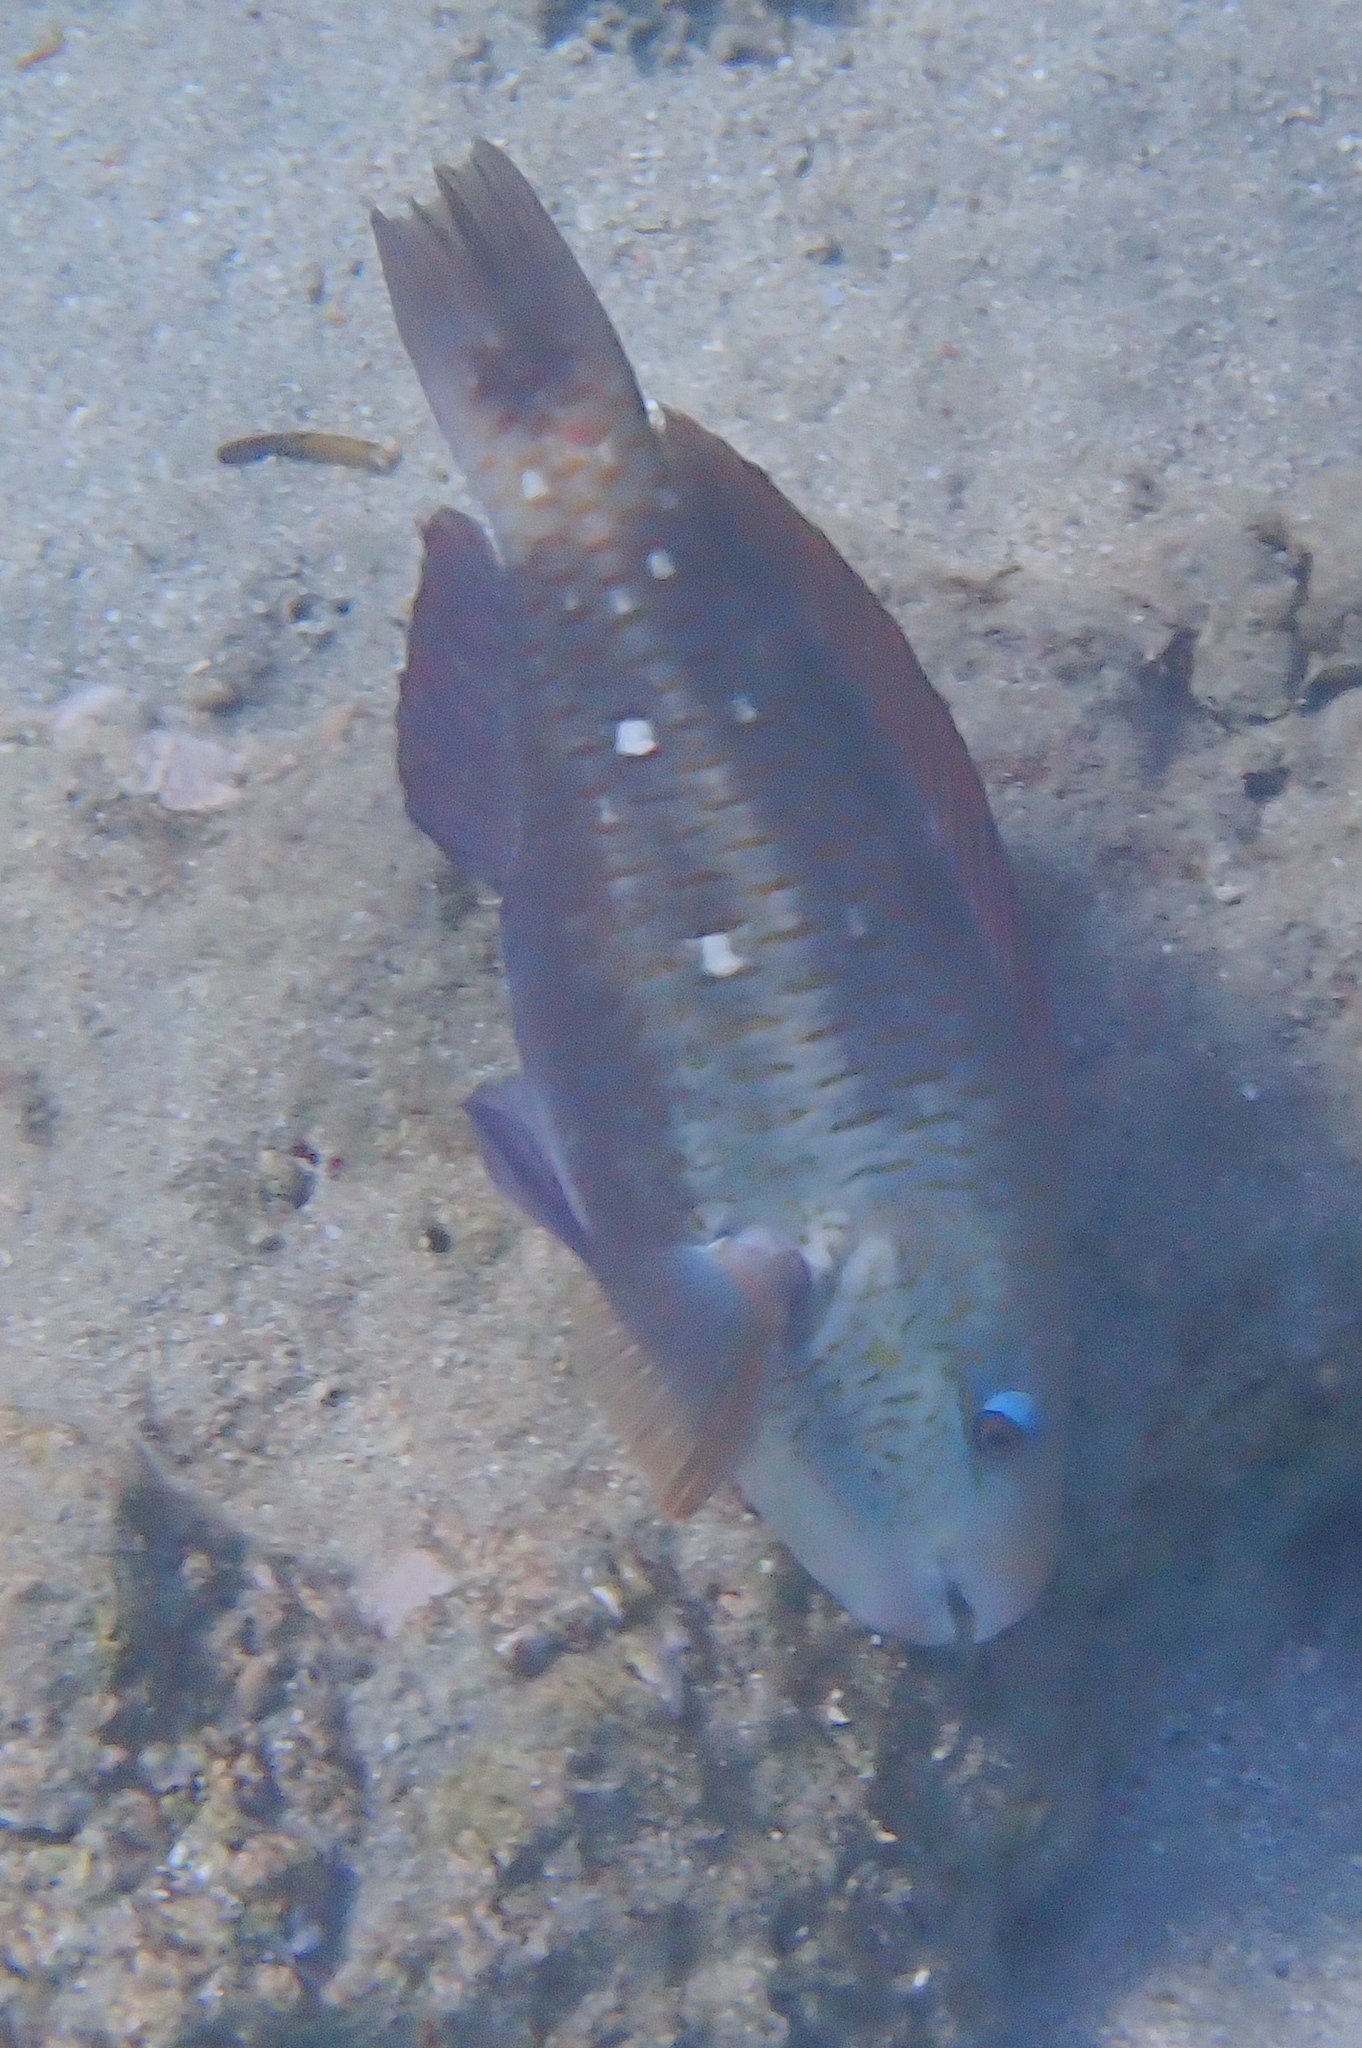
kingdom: Animalia
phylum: Chordata
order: Perciformes
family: Scaridae
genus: Chlorurus
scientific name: Chlorurus sordidus
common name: Bullethead parrotfish
